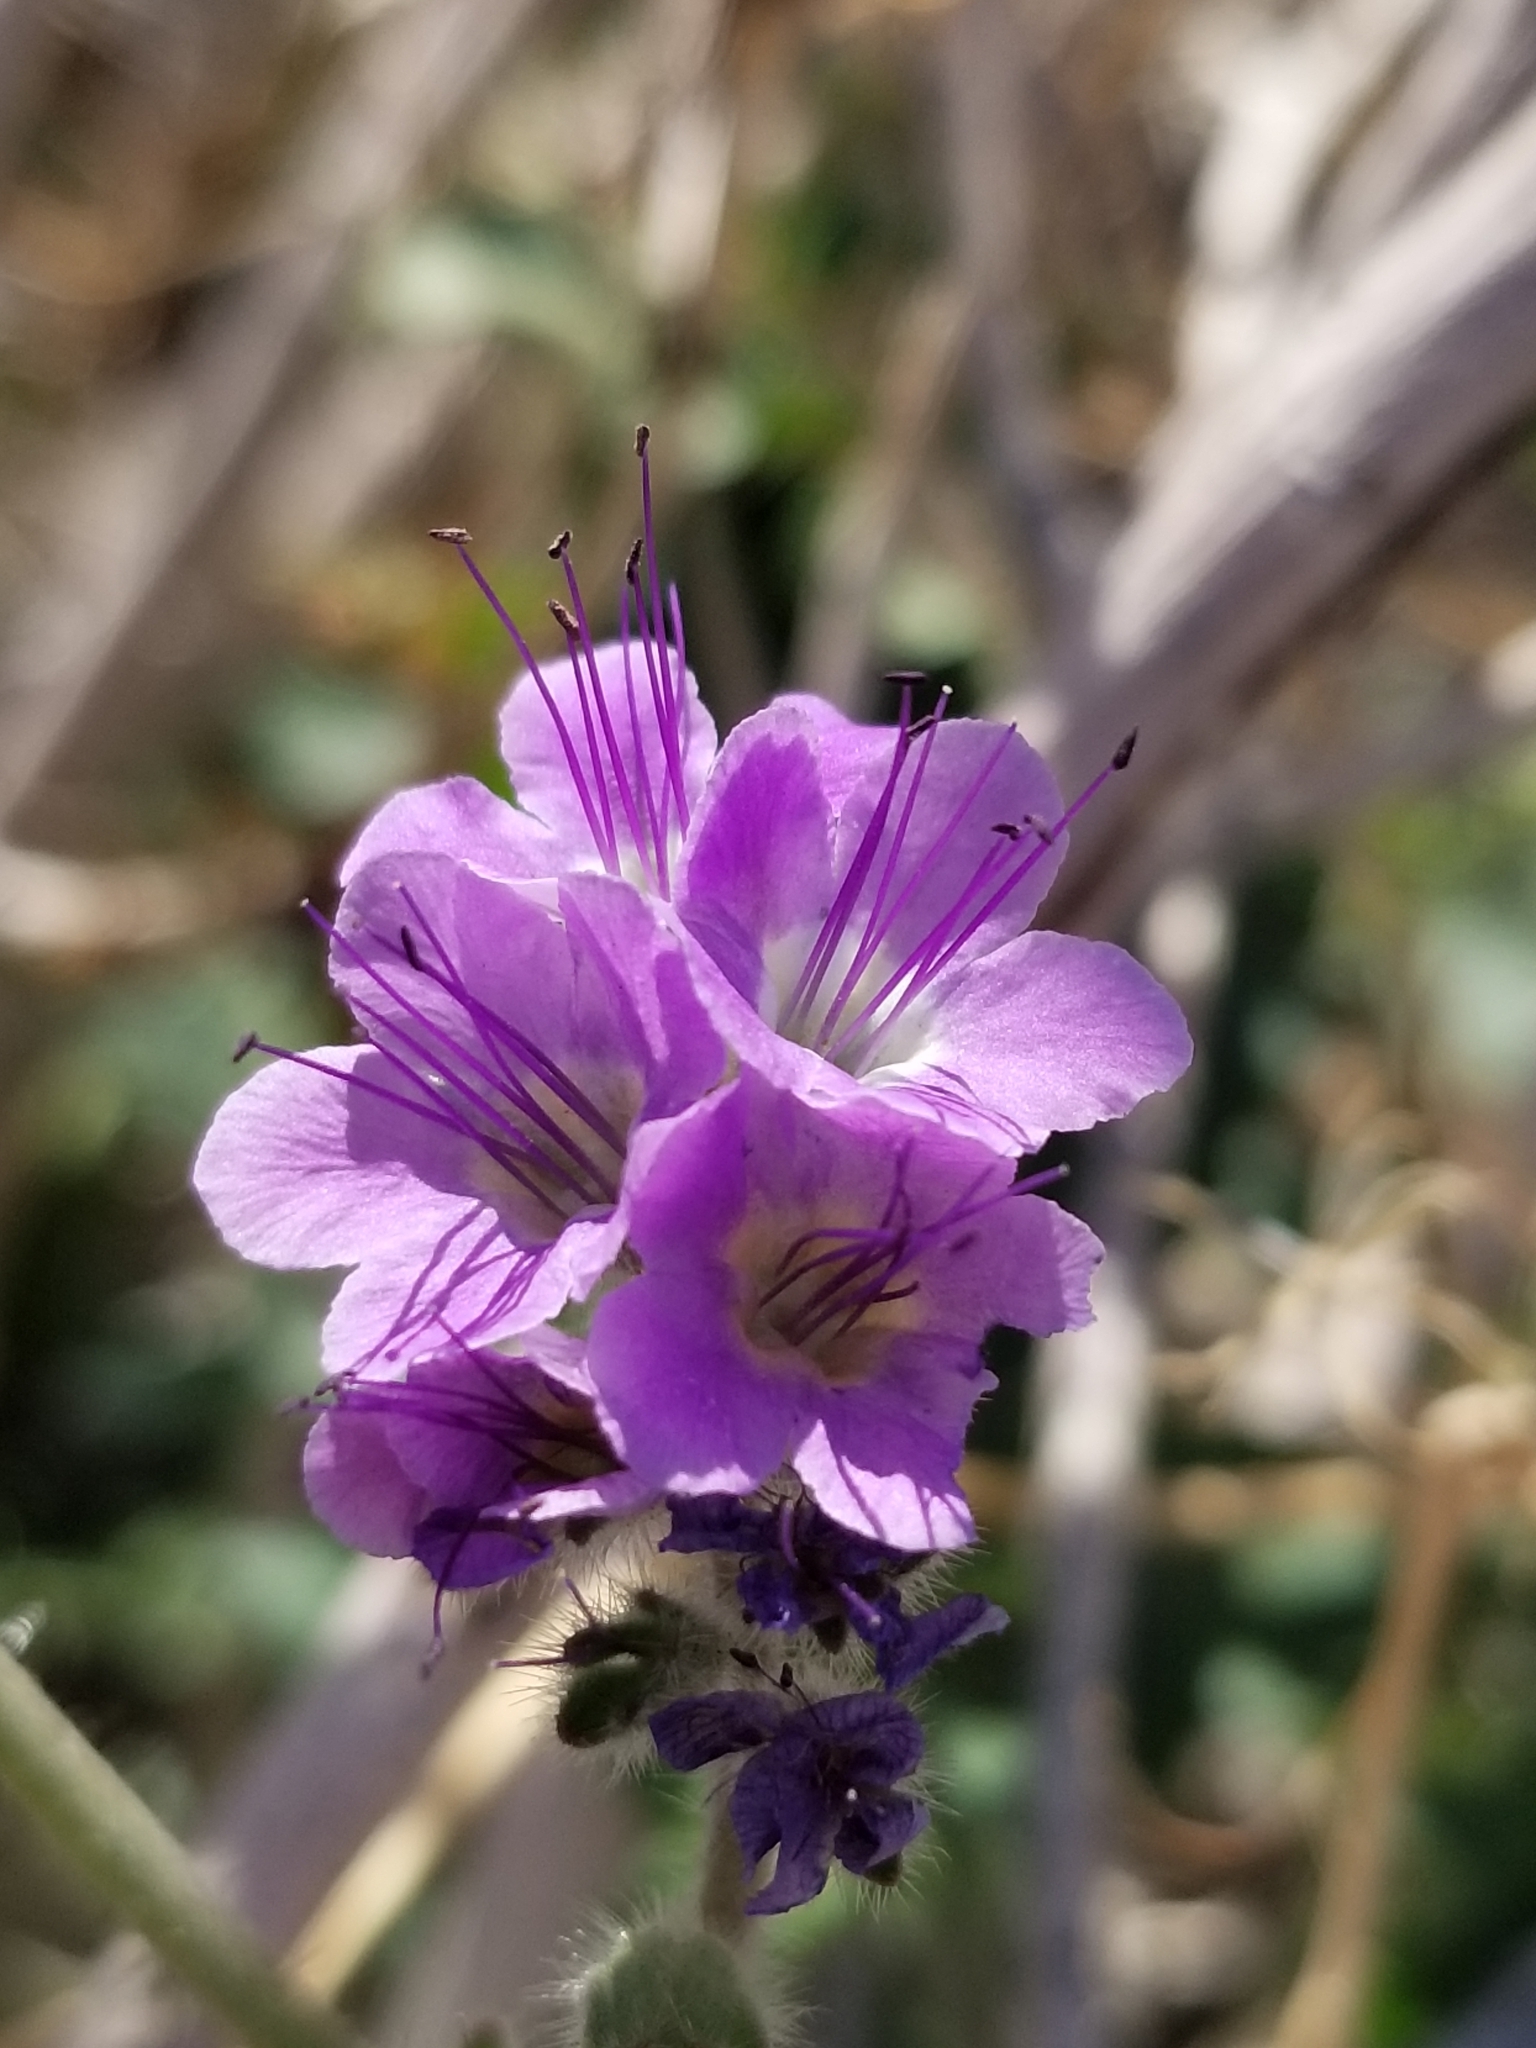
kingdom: Plantae
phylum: Tracheophyta
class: Magnoliopsida
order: Boraginales
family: Hydrophyllaceae
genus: Phacelia
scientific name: Phacelia crenulata
